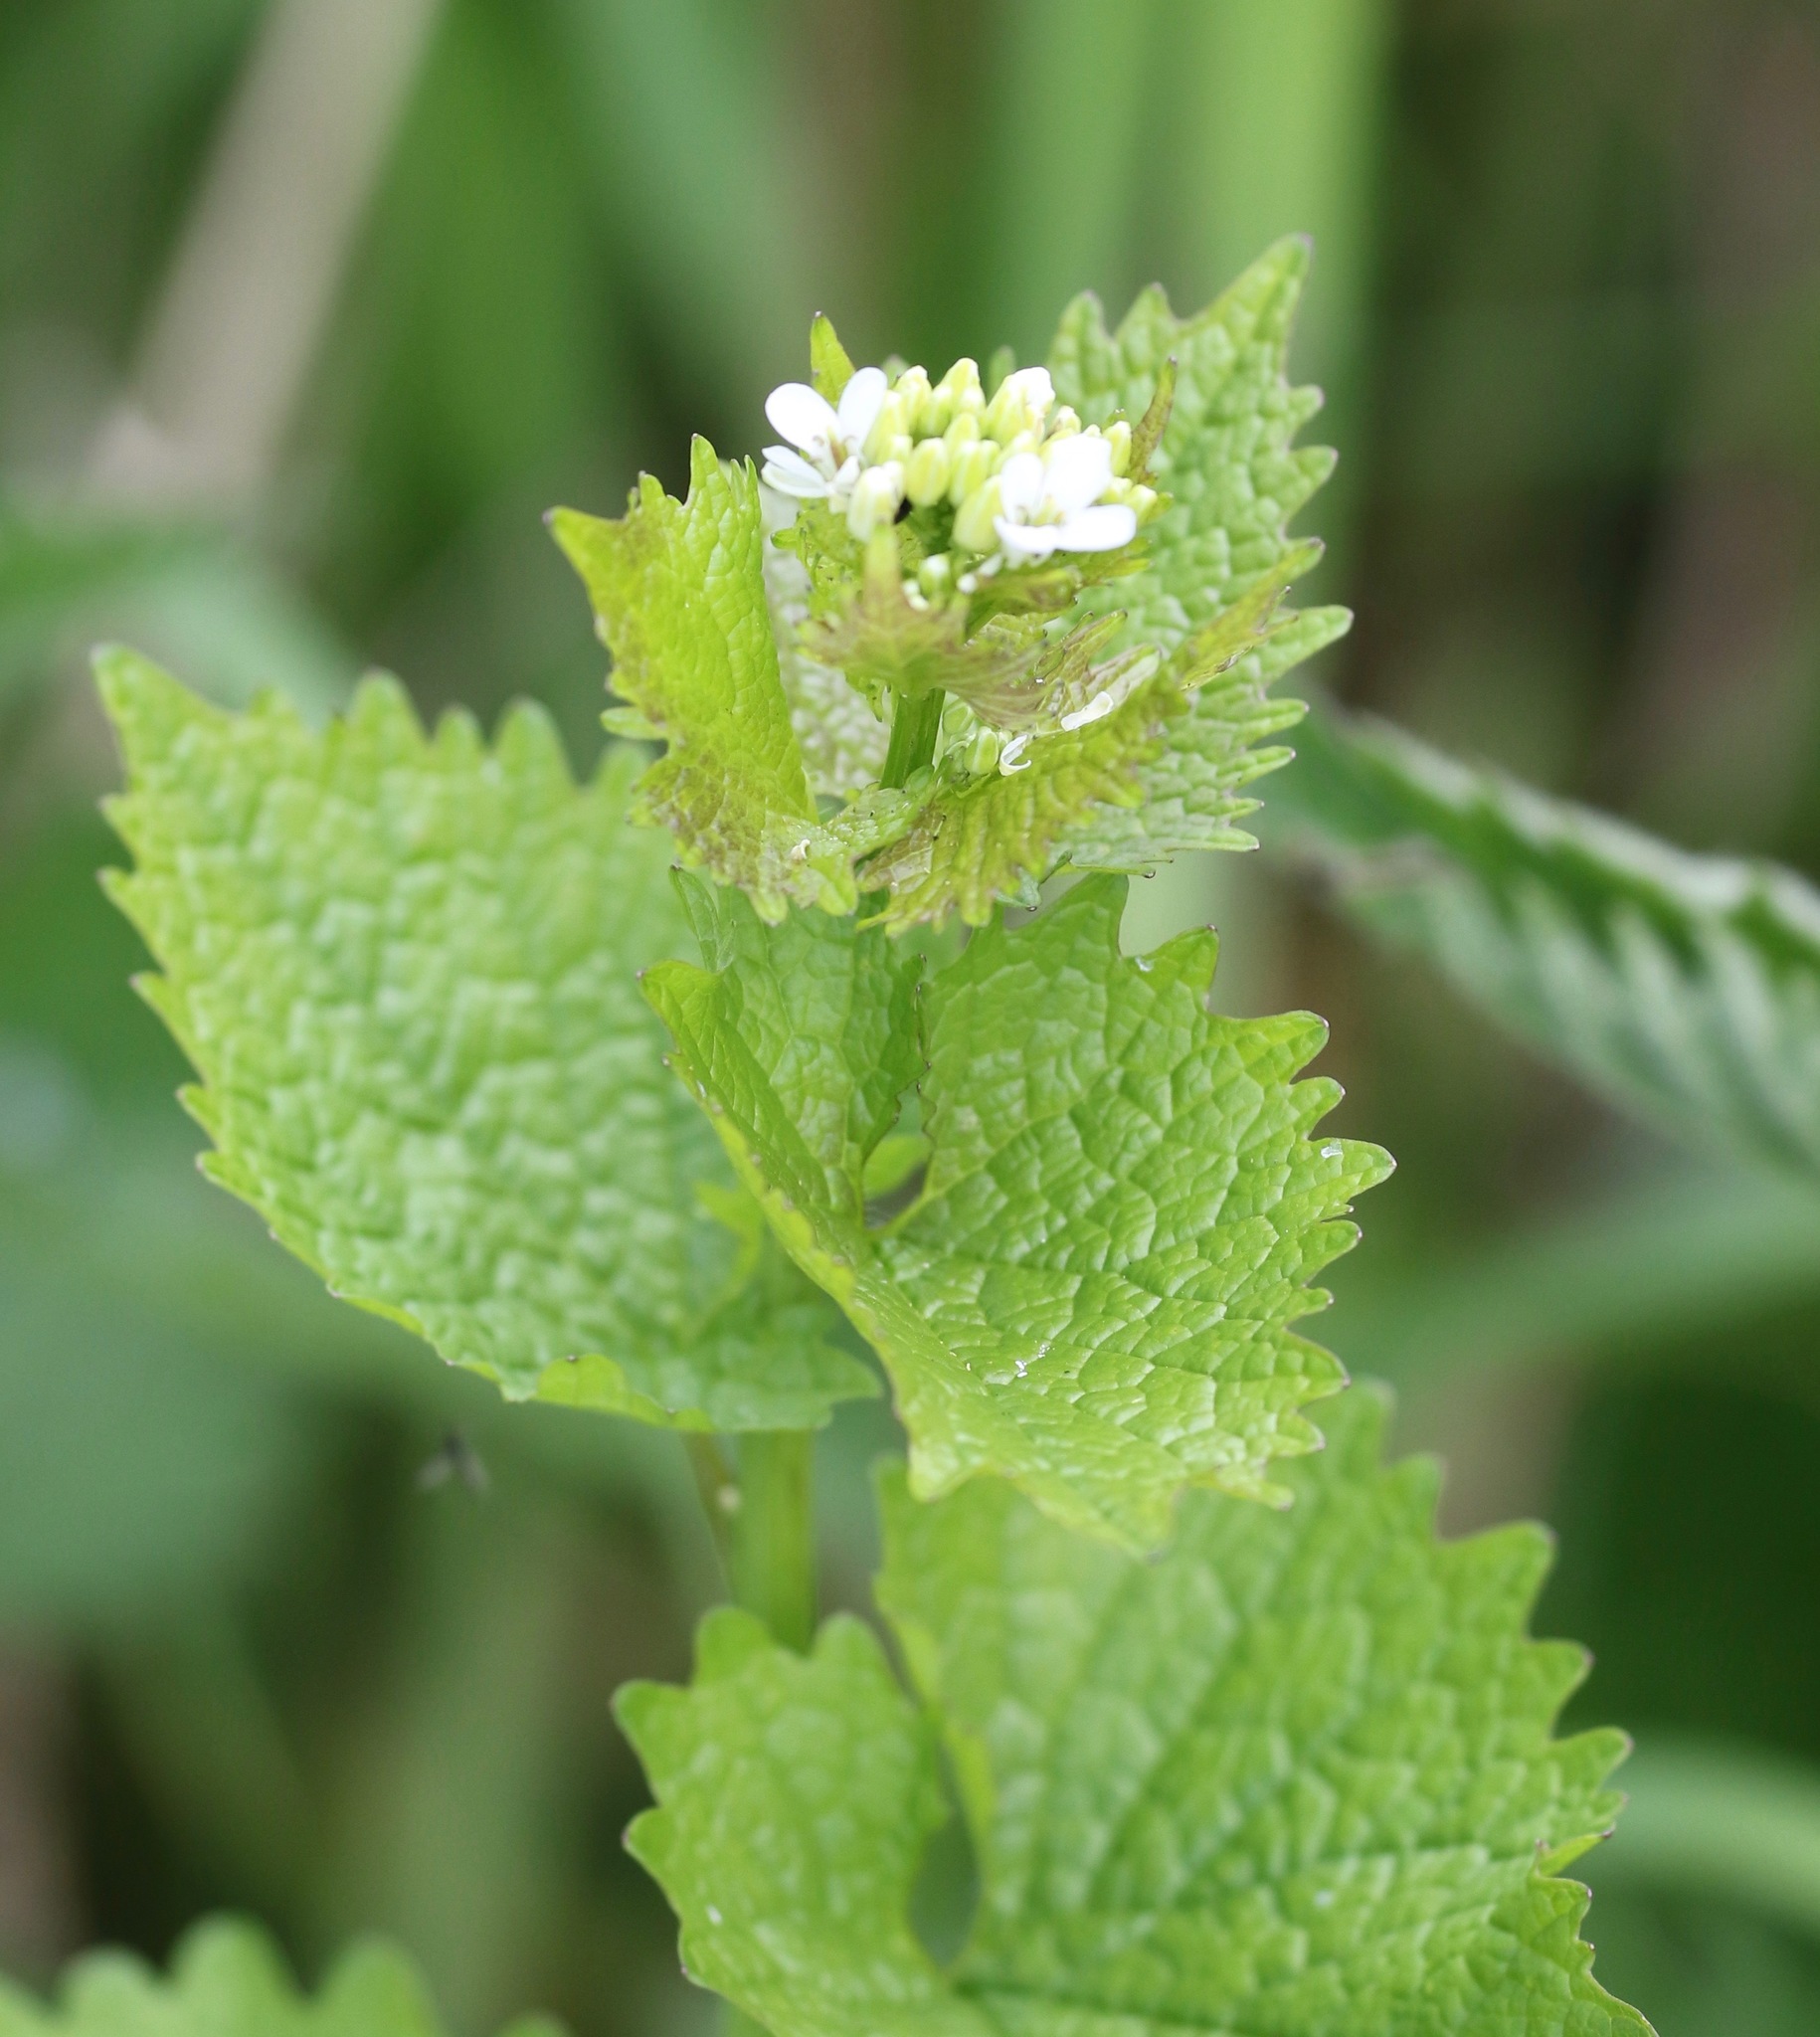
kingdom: Plantae
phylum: Tracheophyta
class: Magnoliopsida
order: Brassicales
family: Brassicaceae
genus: Alliaria
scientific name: Alliaria petiolata
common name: Garlic mustard
